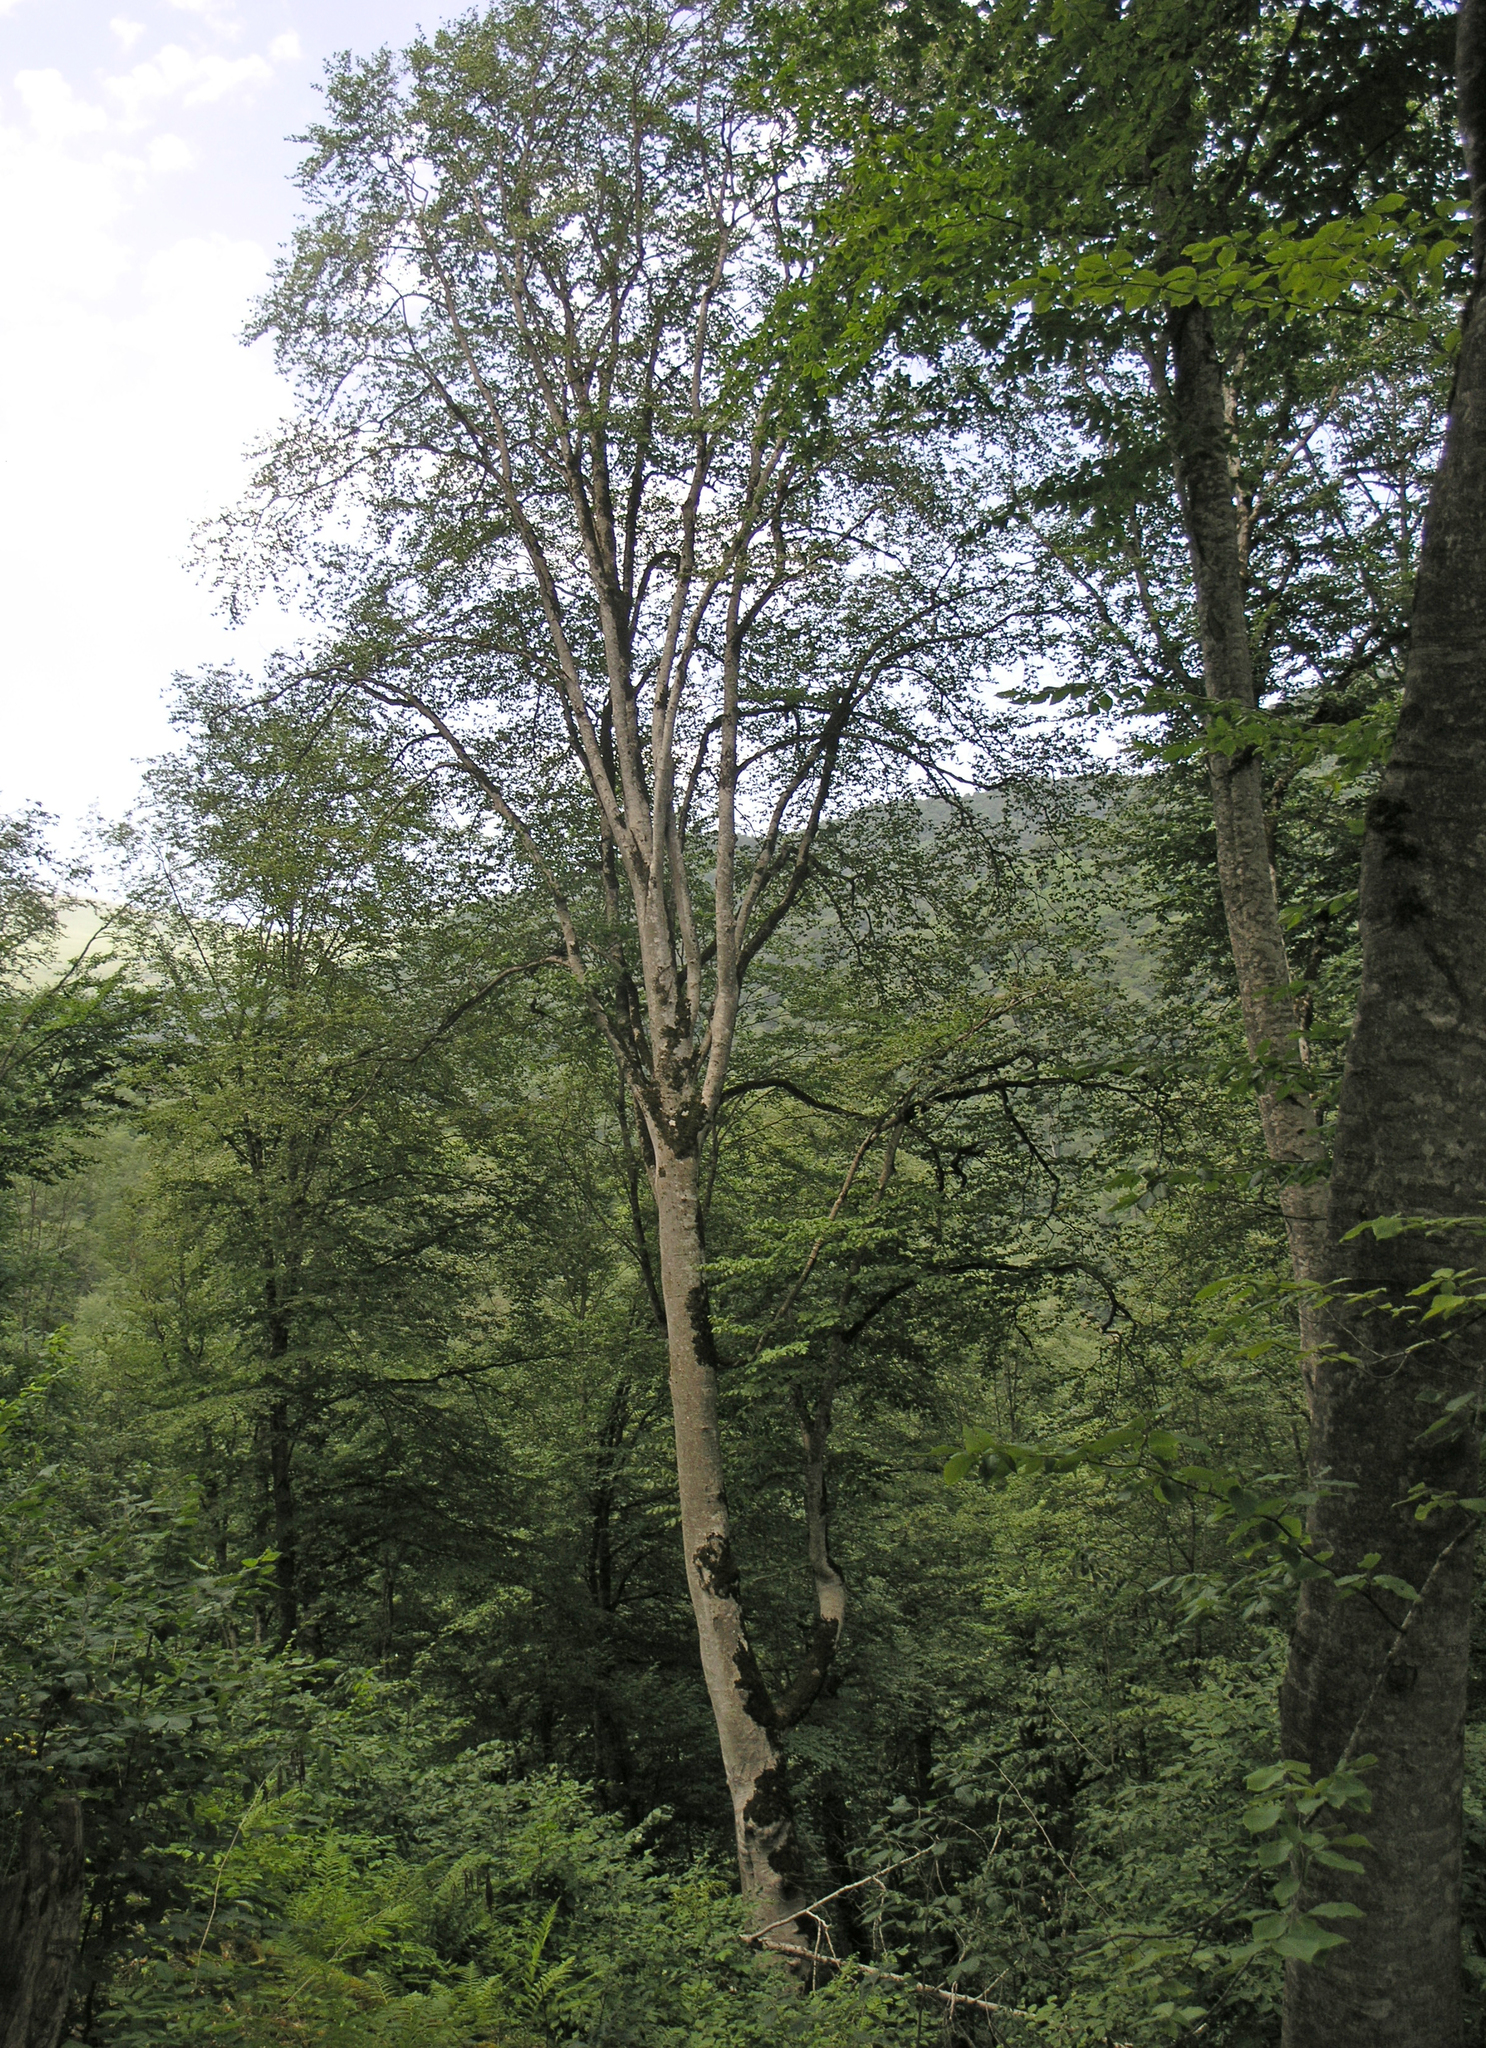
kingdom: Plantae
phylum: Tracheophyta
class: Magnoliopsida
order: Fagales
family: Fagaceae
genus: Fagus
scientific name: Fagus orientalis
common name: Oriental beech
